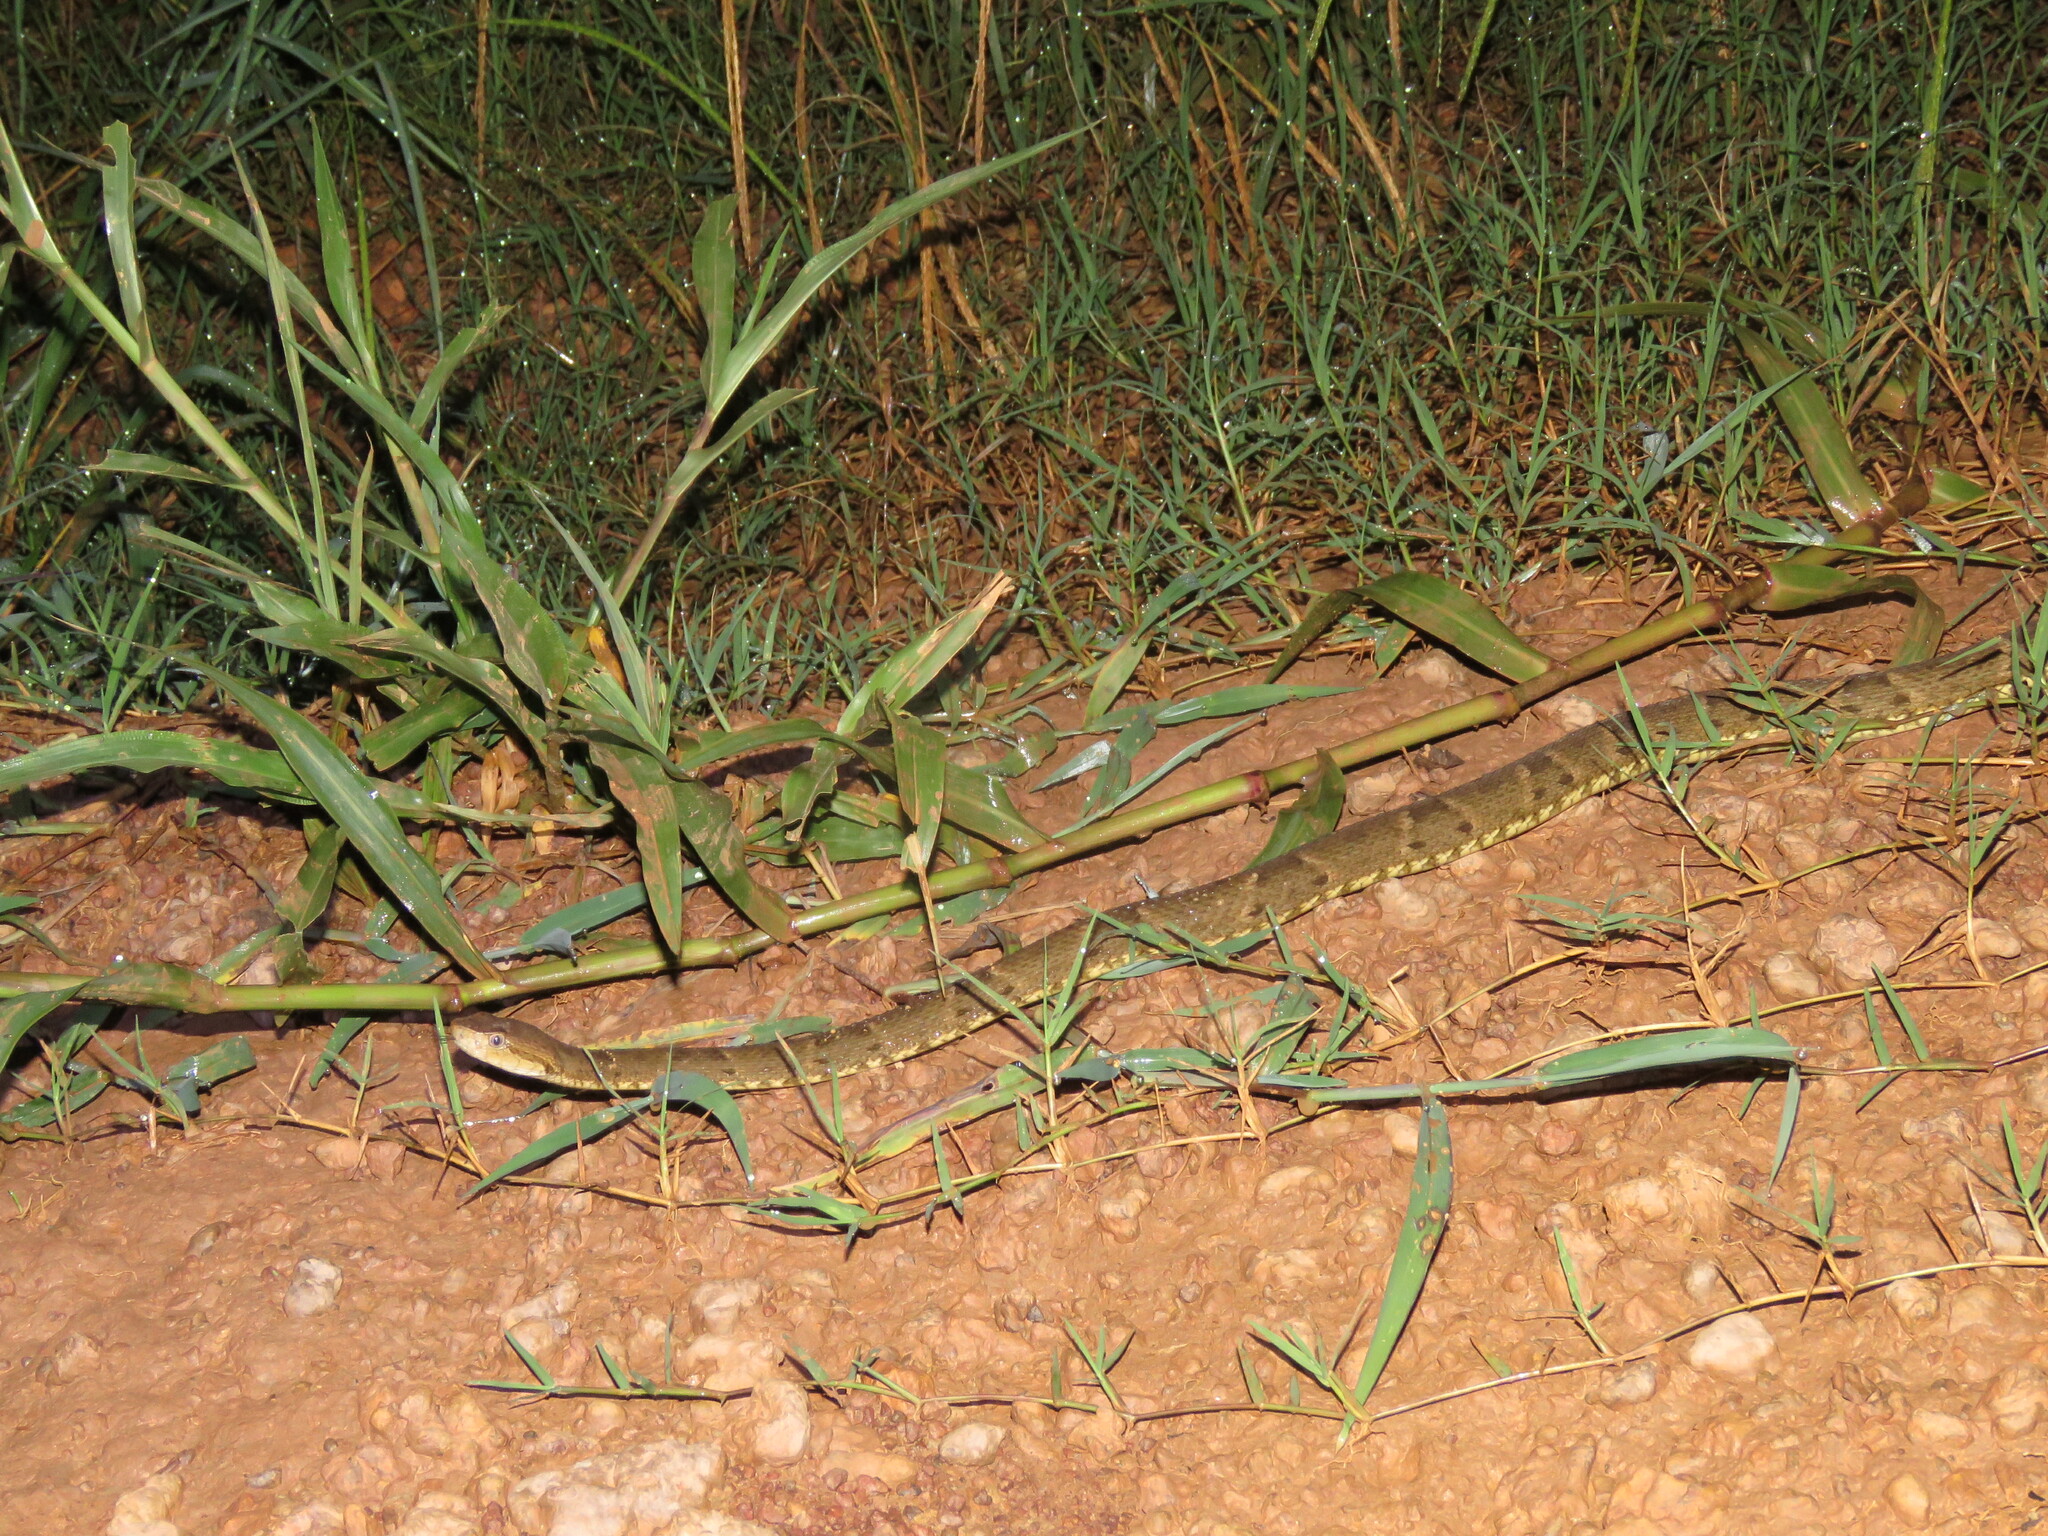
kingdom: Animalia
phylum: Chordata
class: Squamata
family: Viperidae
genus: Bothrops
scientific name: Bothrops atrox
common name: Common lancehead
